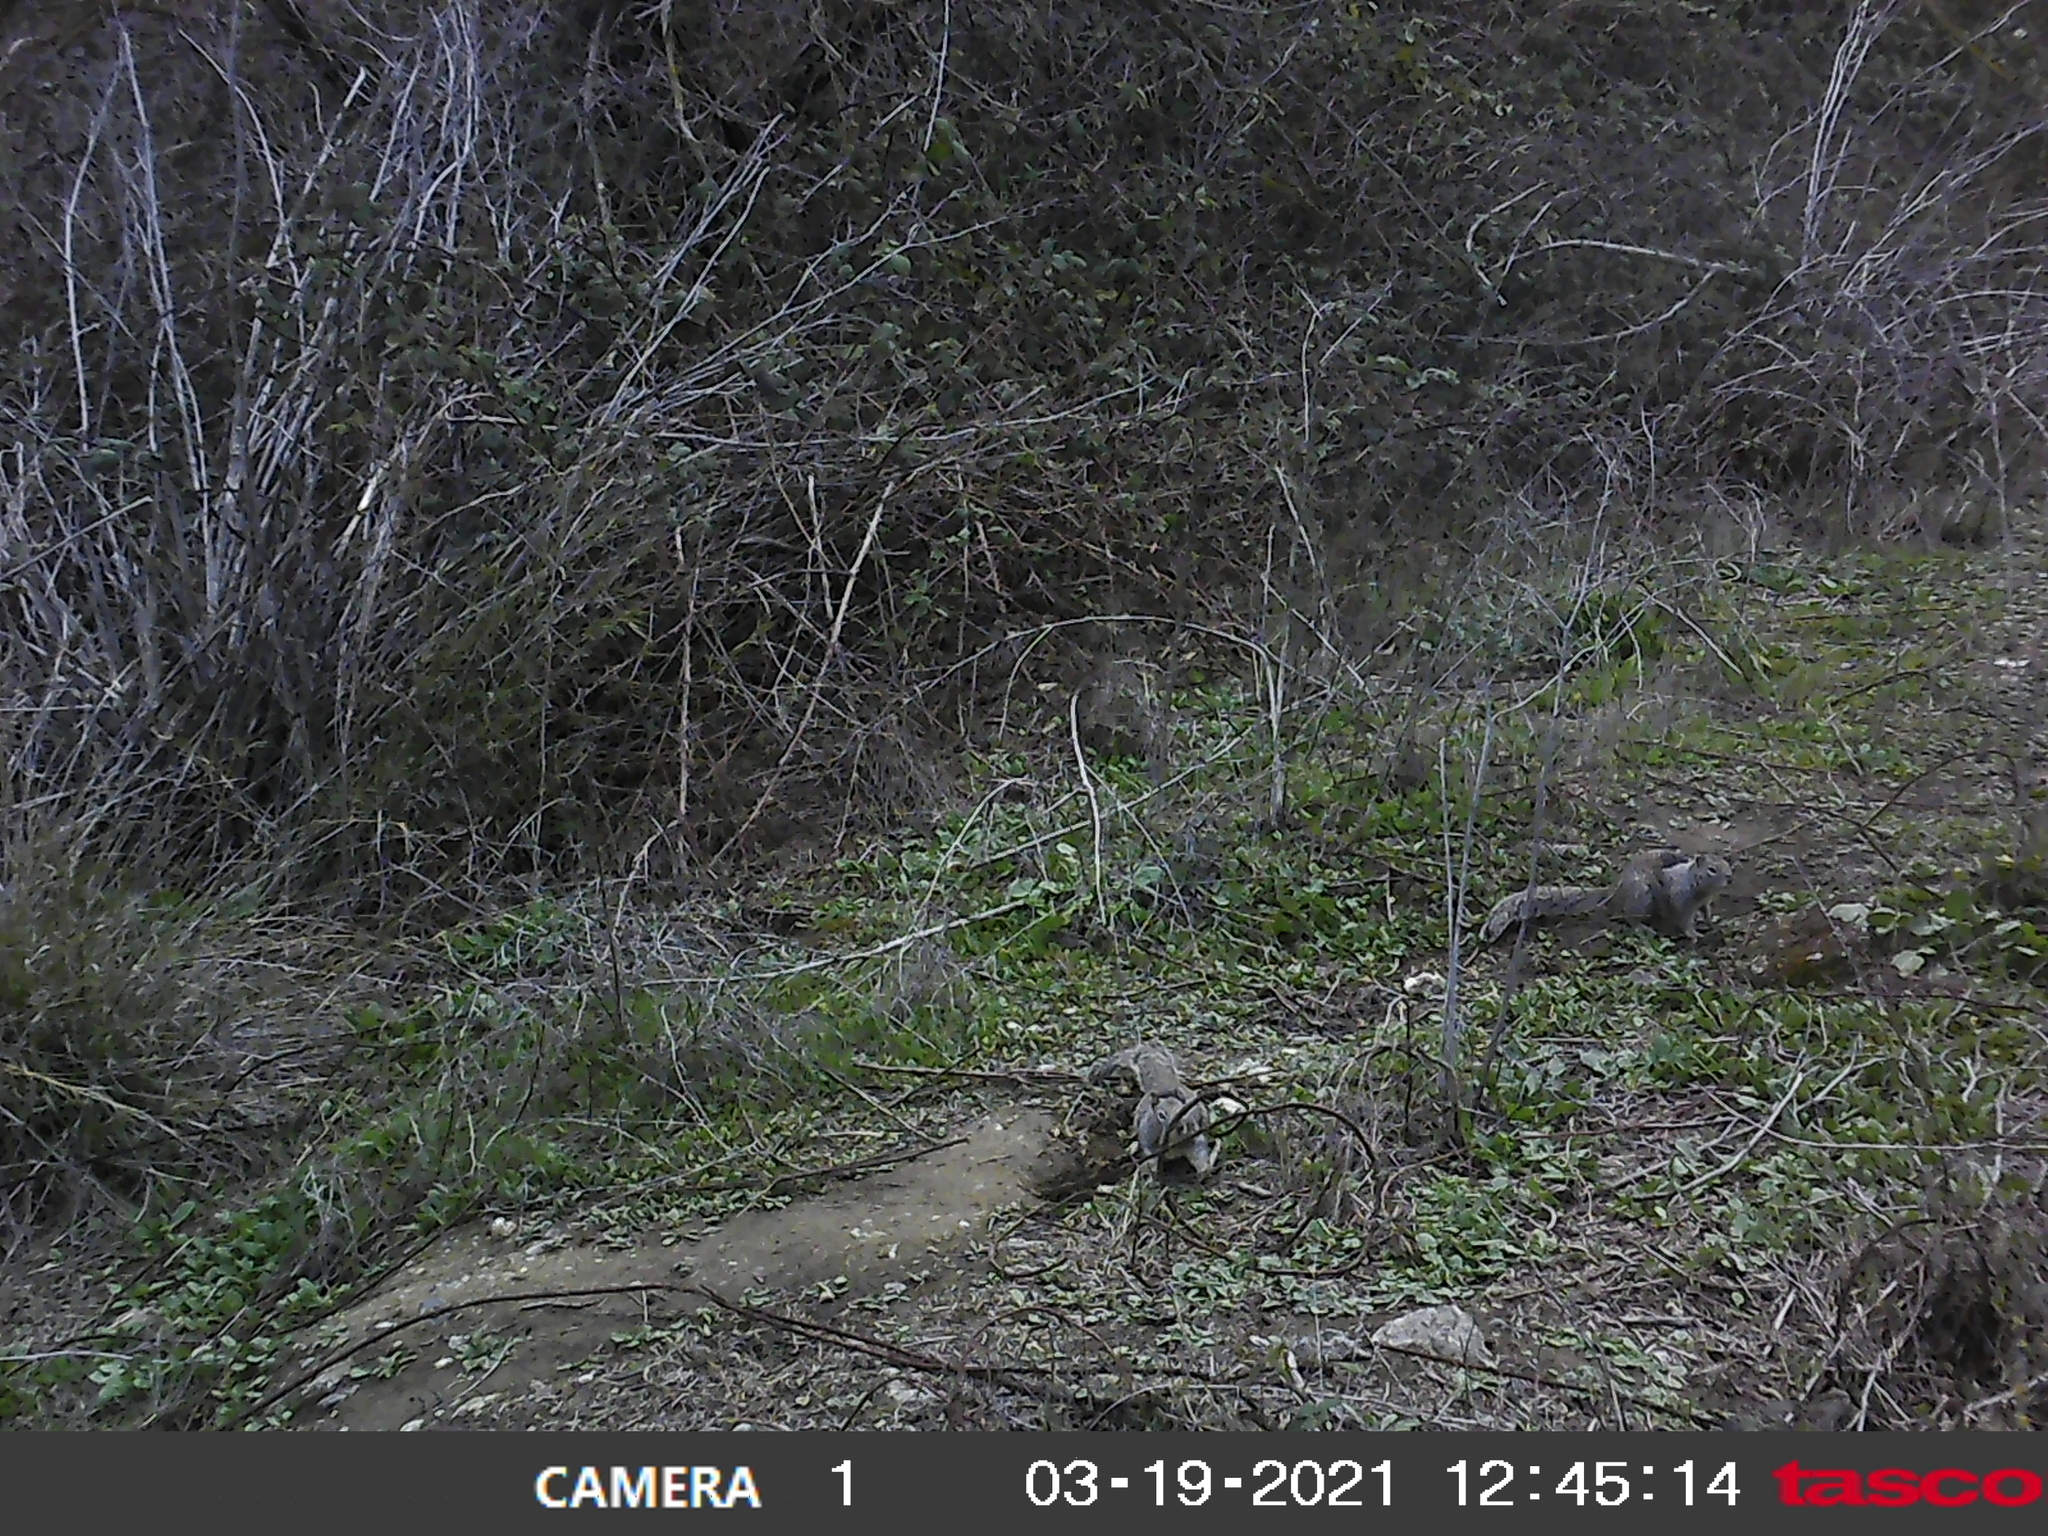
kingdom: Animalia
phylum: Chordata
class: Mammalia
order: Rodentia
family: Sciuridae
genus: Otospermophilus
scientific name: Otospermophilus beecheyi
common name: California ground squirrel
